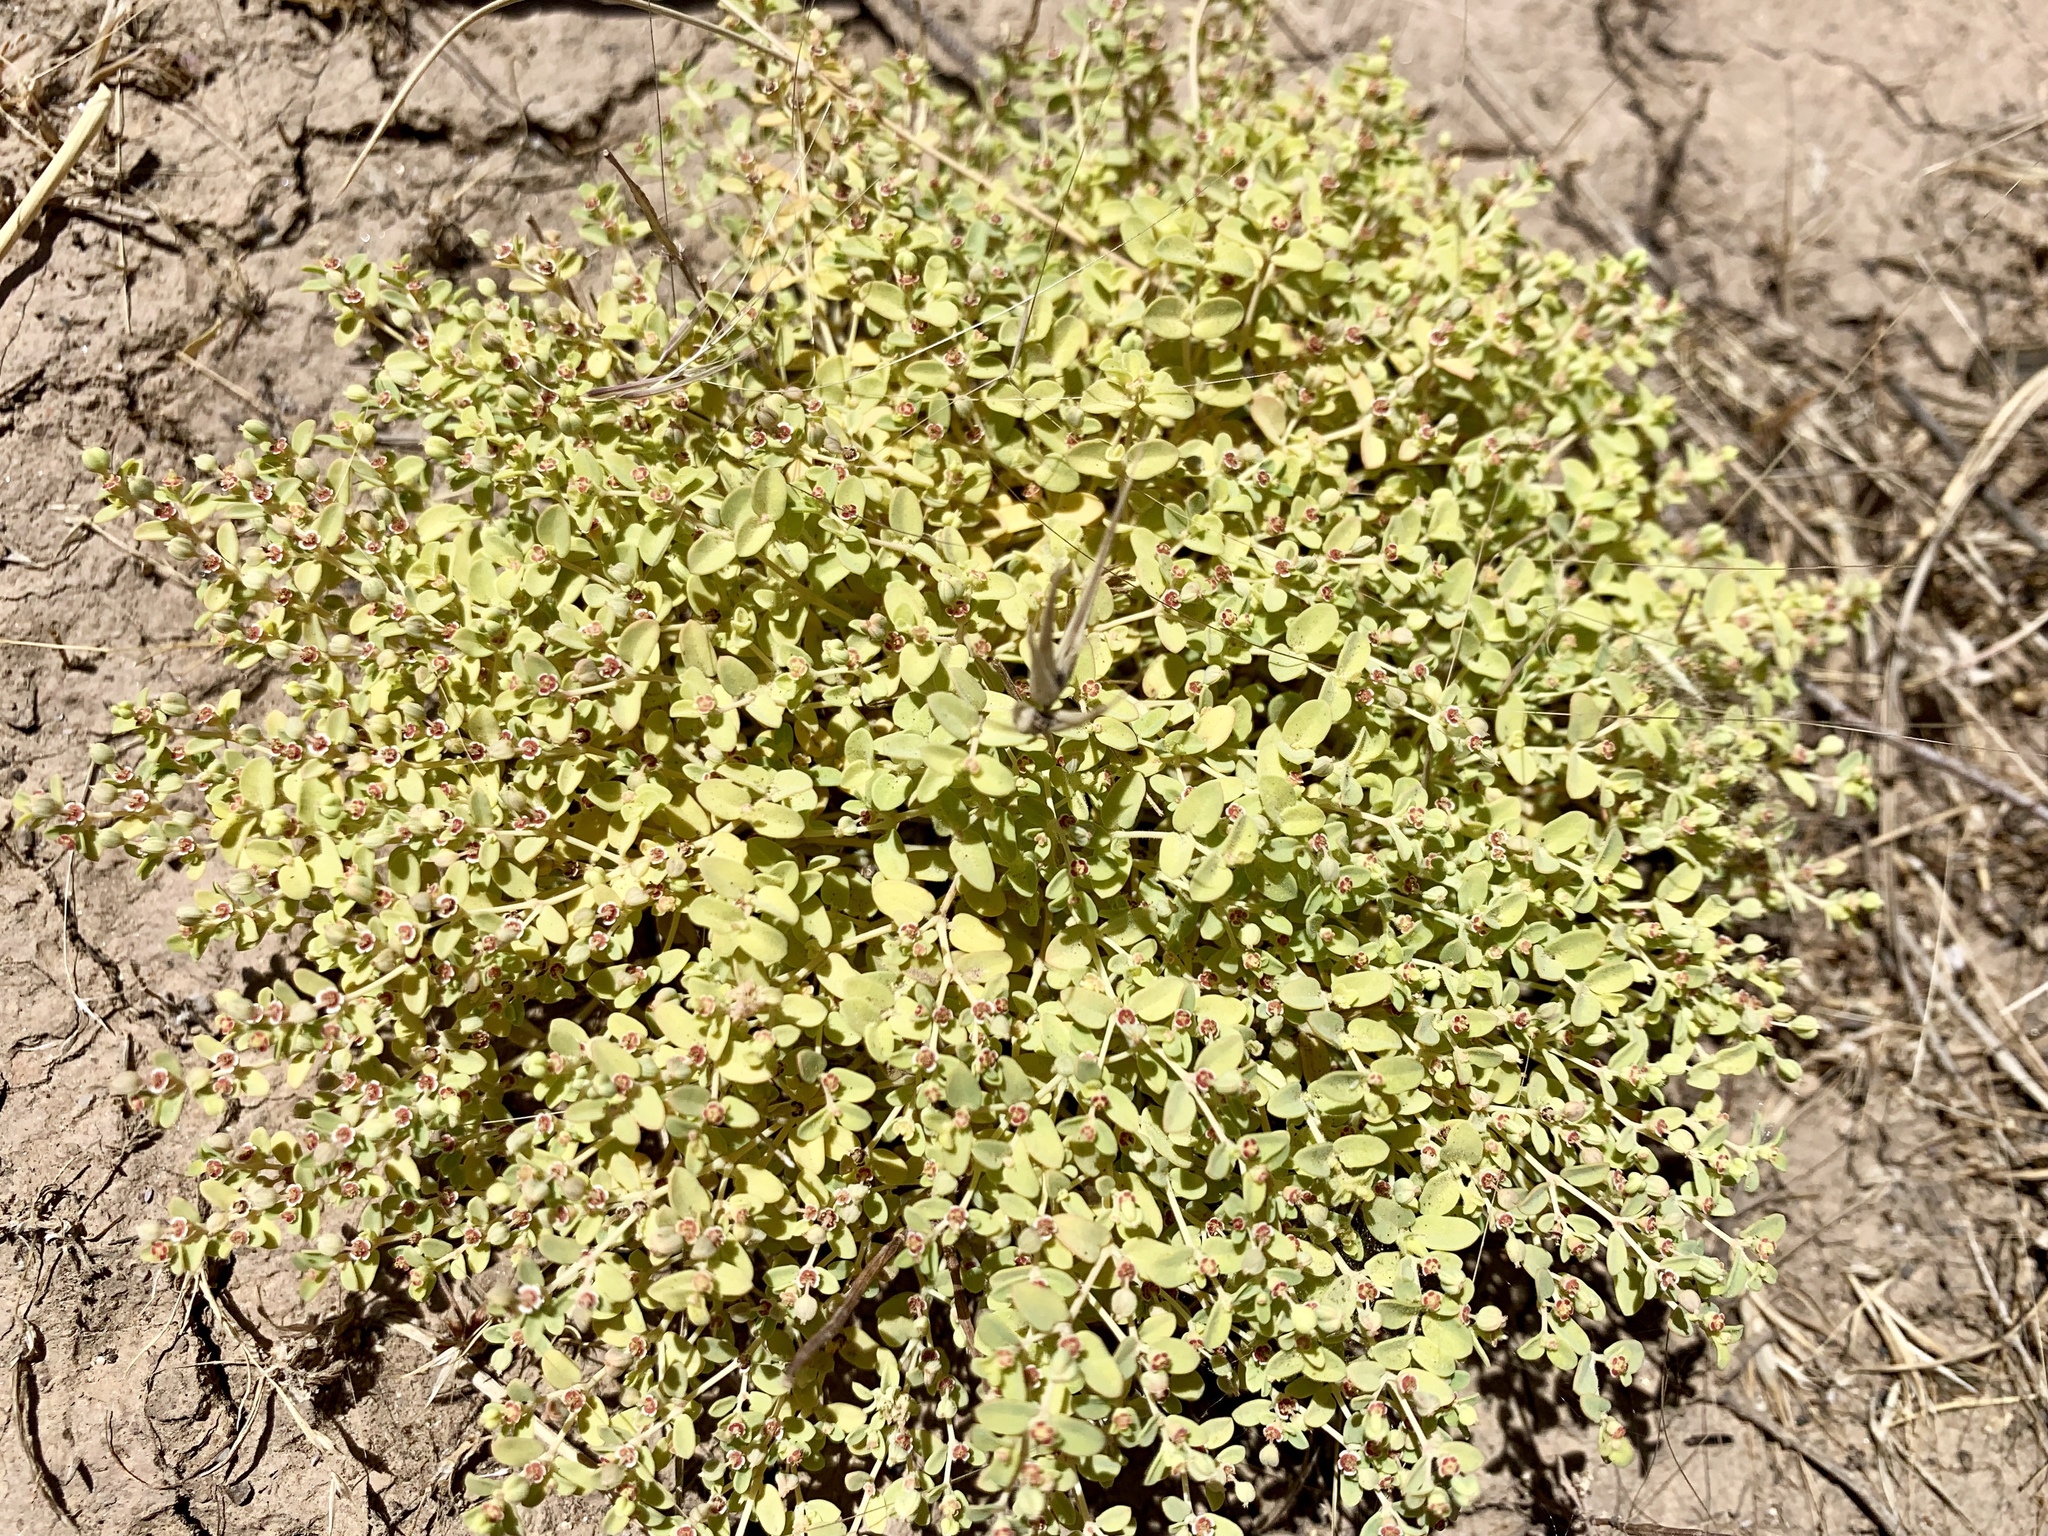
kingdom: Plantae
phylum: Tracheophyta
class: Magnoliopsida
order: Malpighiales
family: Euphorbiaceae
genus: Euphorbia
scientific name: Euphorbia polycarpa
